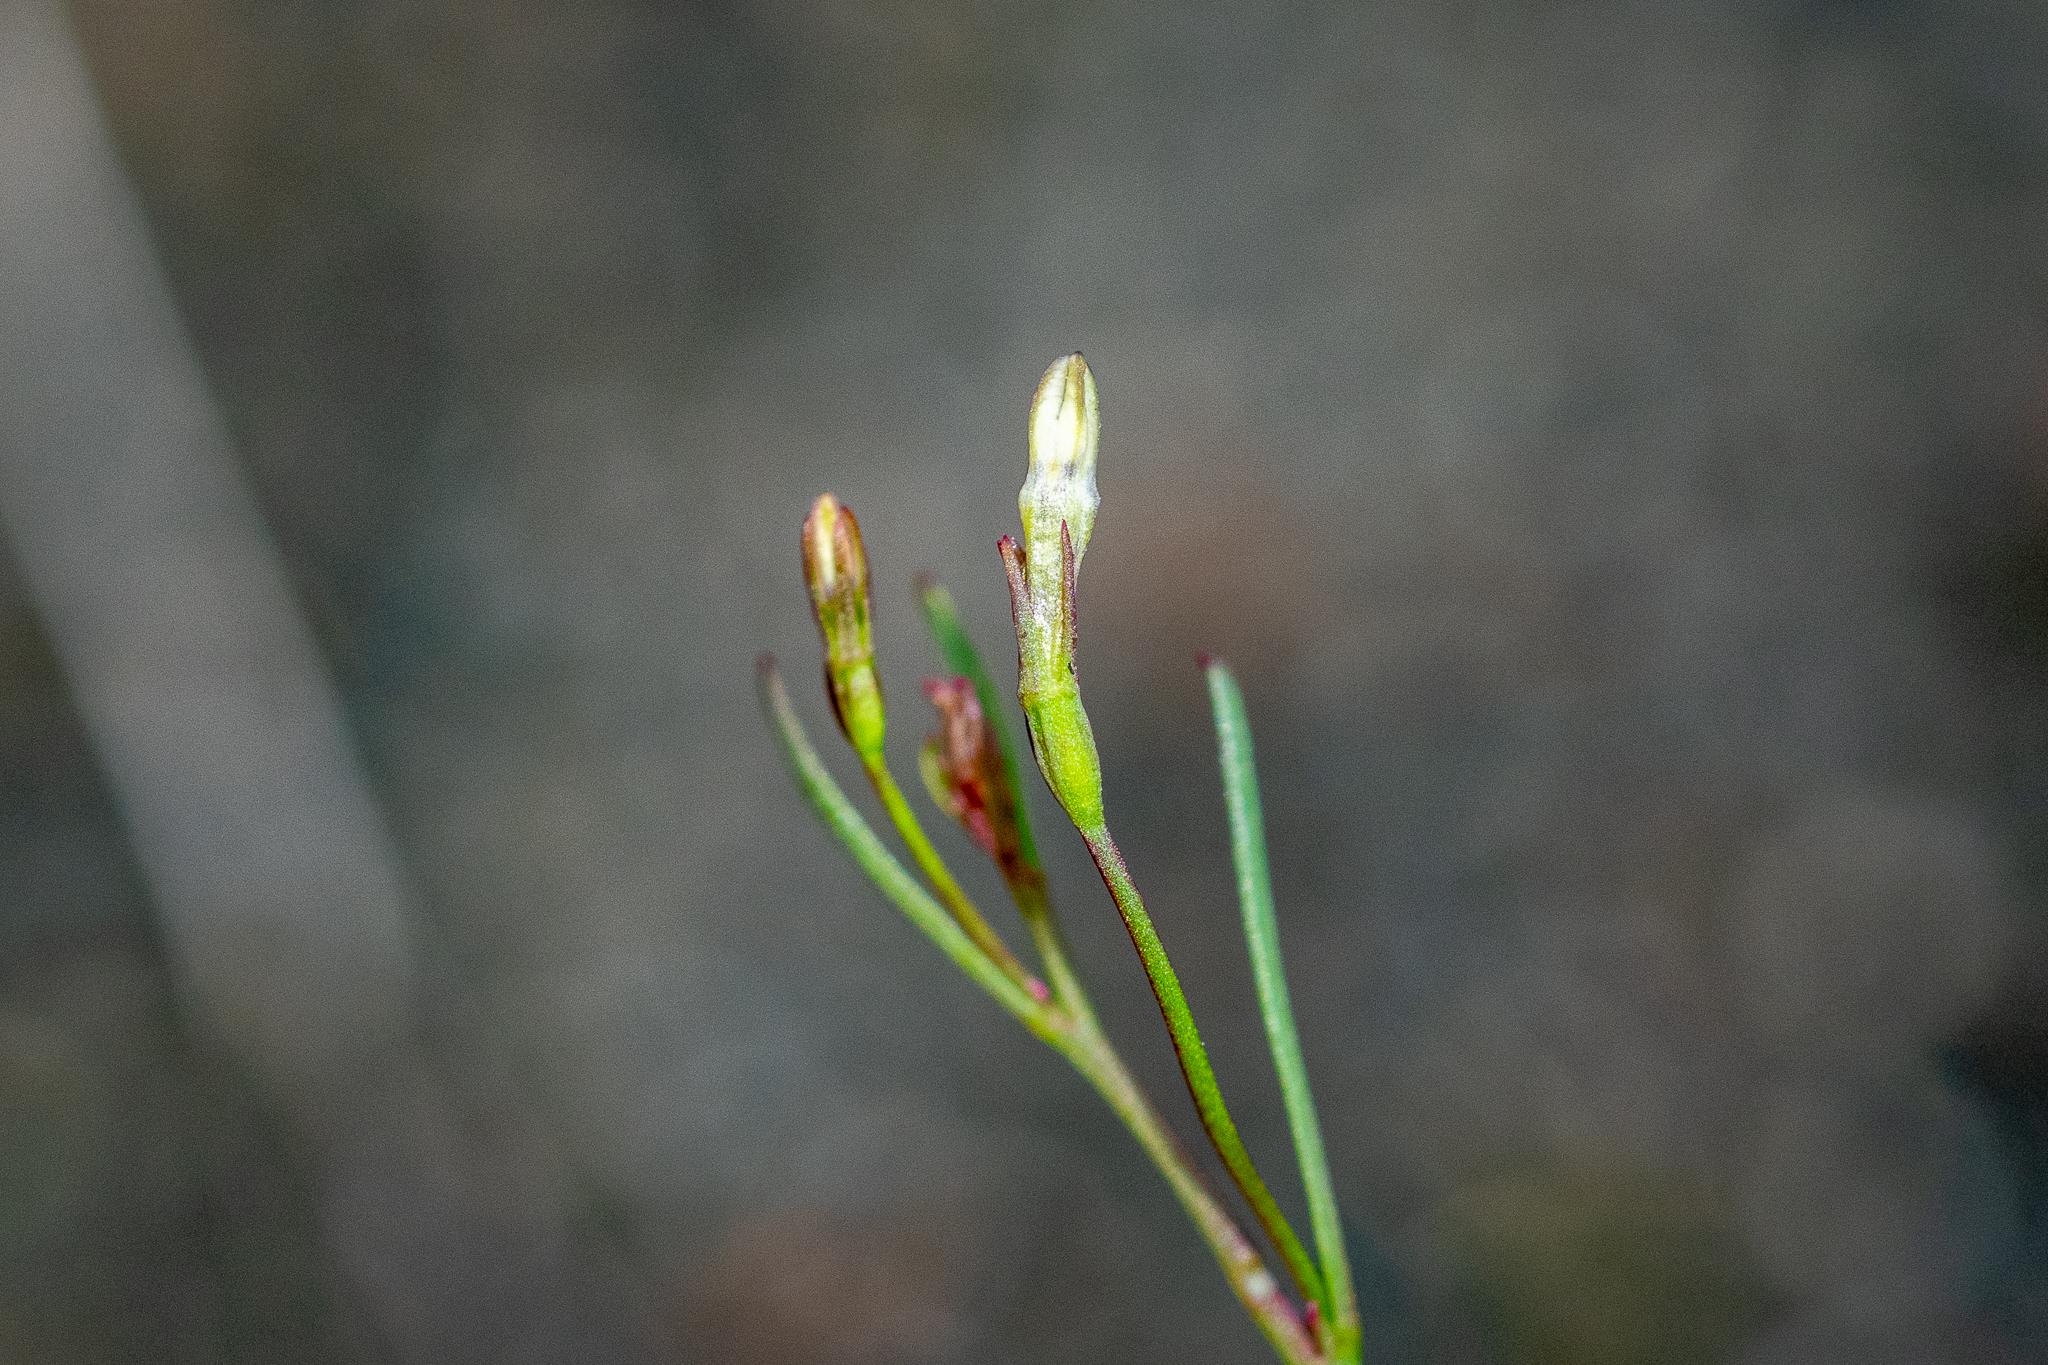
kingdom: Plantae
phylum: Tracheophyta
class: Magnoliopsida
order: Asterales
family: Campanulaceae
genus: Wimmerella
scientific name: Wimmerella arabidea
